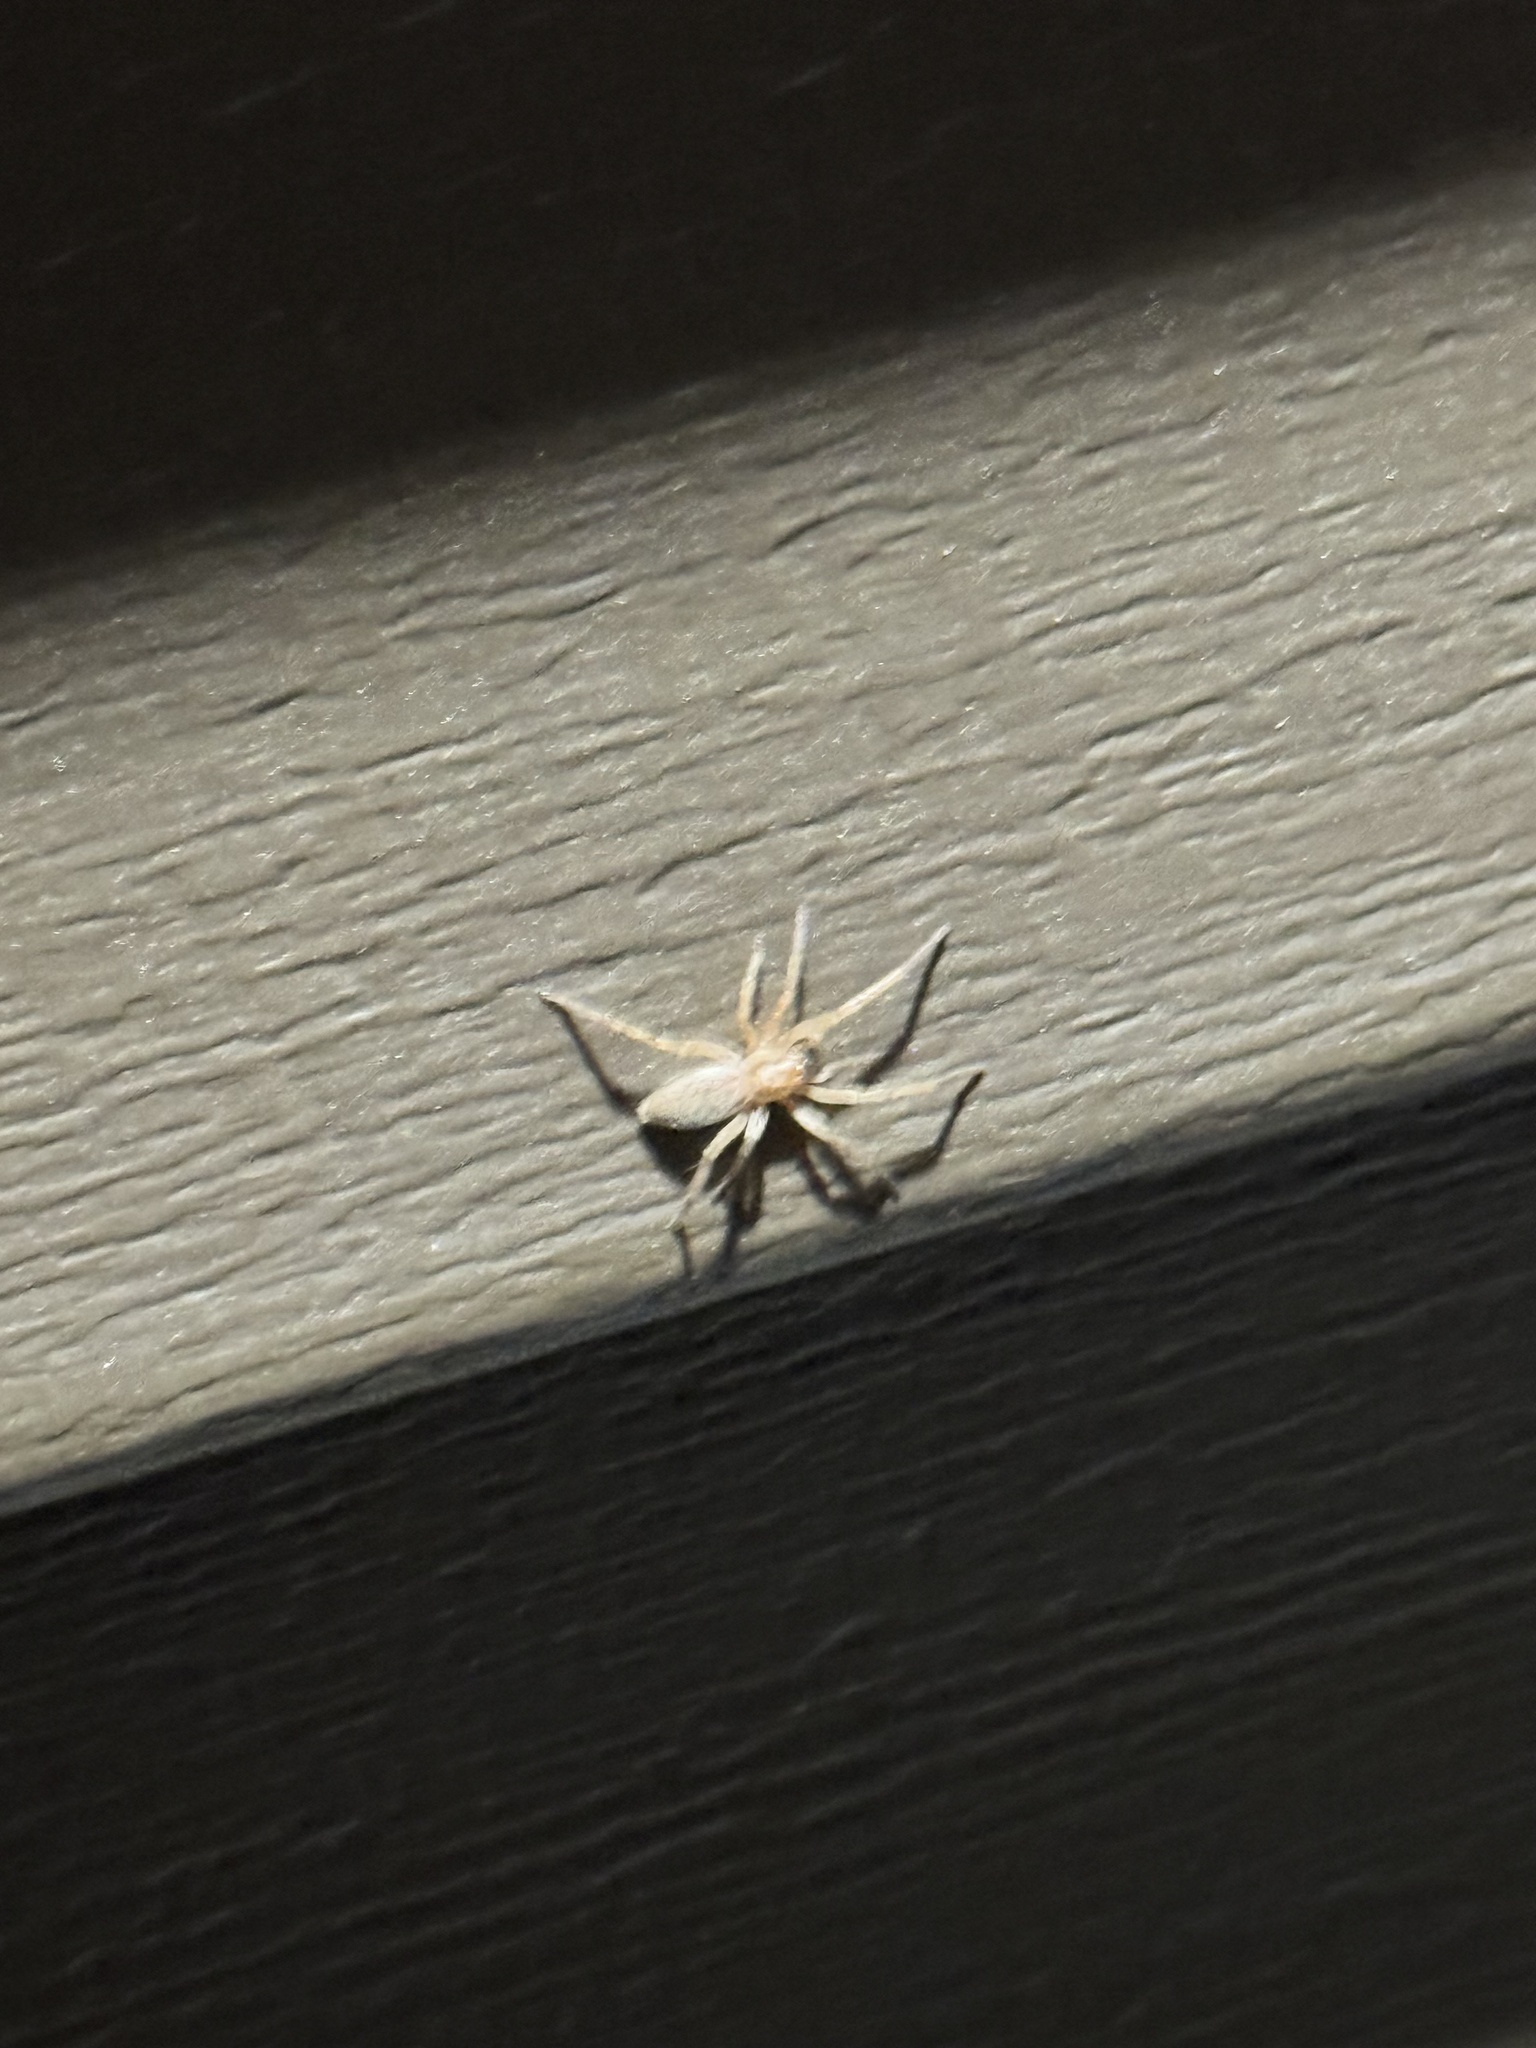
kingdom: Animalia
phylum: Arthropoda
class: Arachnida
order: Araneae
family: Anyphaenidae
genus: Hibana
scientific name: Hibana gracilis
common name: Garden ghost spider
